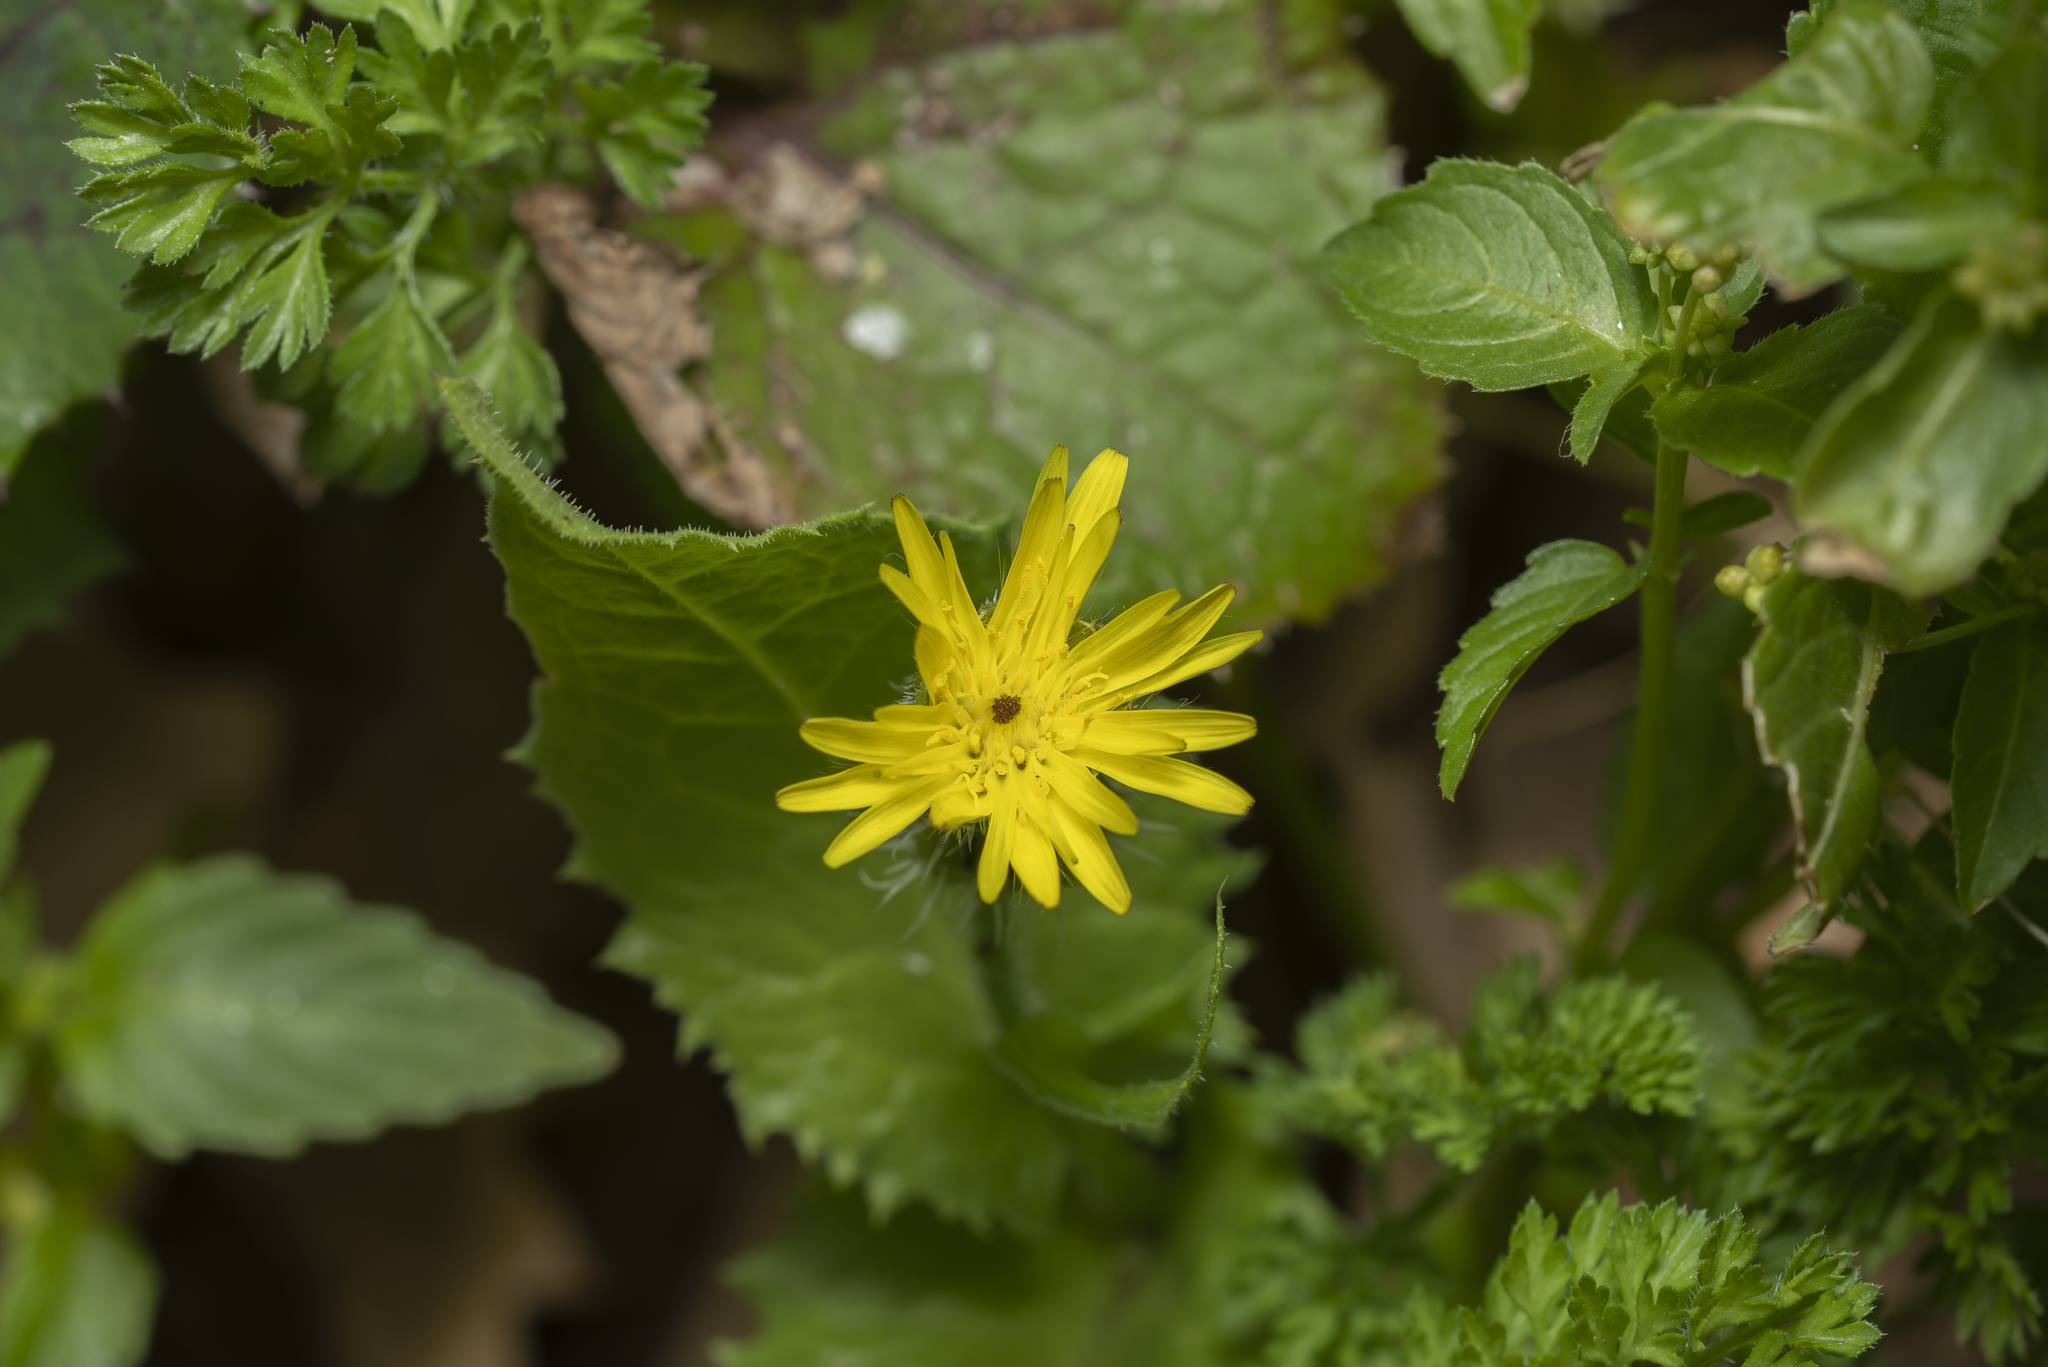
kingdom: Plantae
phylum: Tracheophyta
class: Magnoliopsida
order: Asterales
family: Asteraceae
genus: Urospermum
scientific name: Urospermum picroides
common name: False hawkbit
